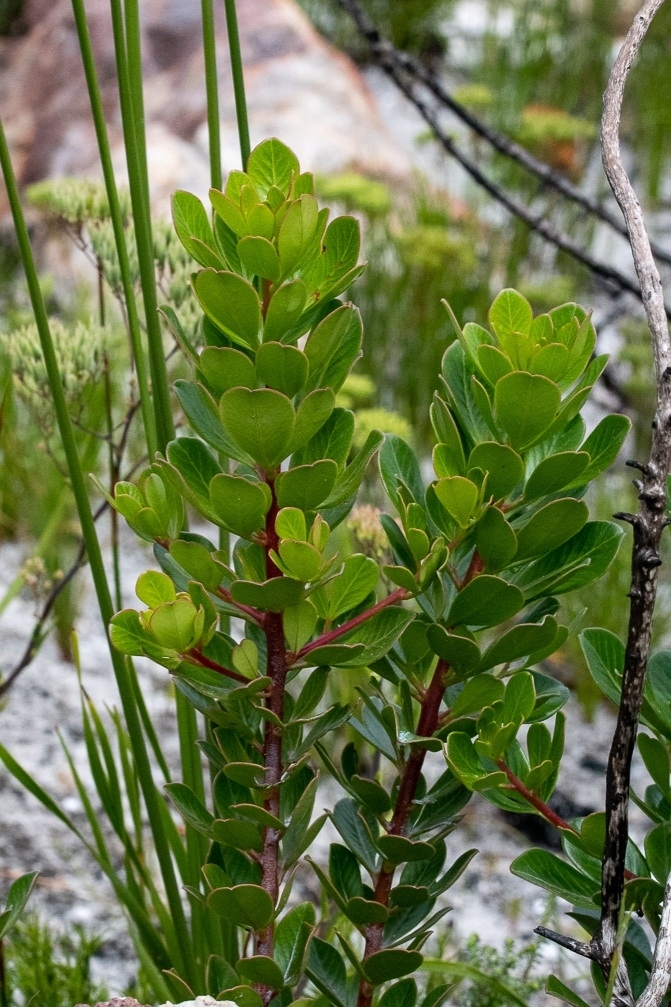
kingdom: Plantae
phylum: Tracheophyta
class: Magnoliopsida
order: Sapindales
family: Anacardiaceae
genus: Searsia
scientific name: Searsia scytophylla
